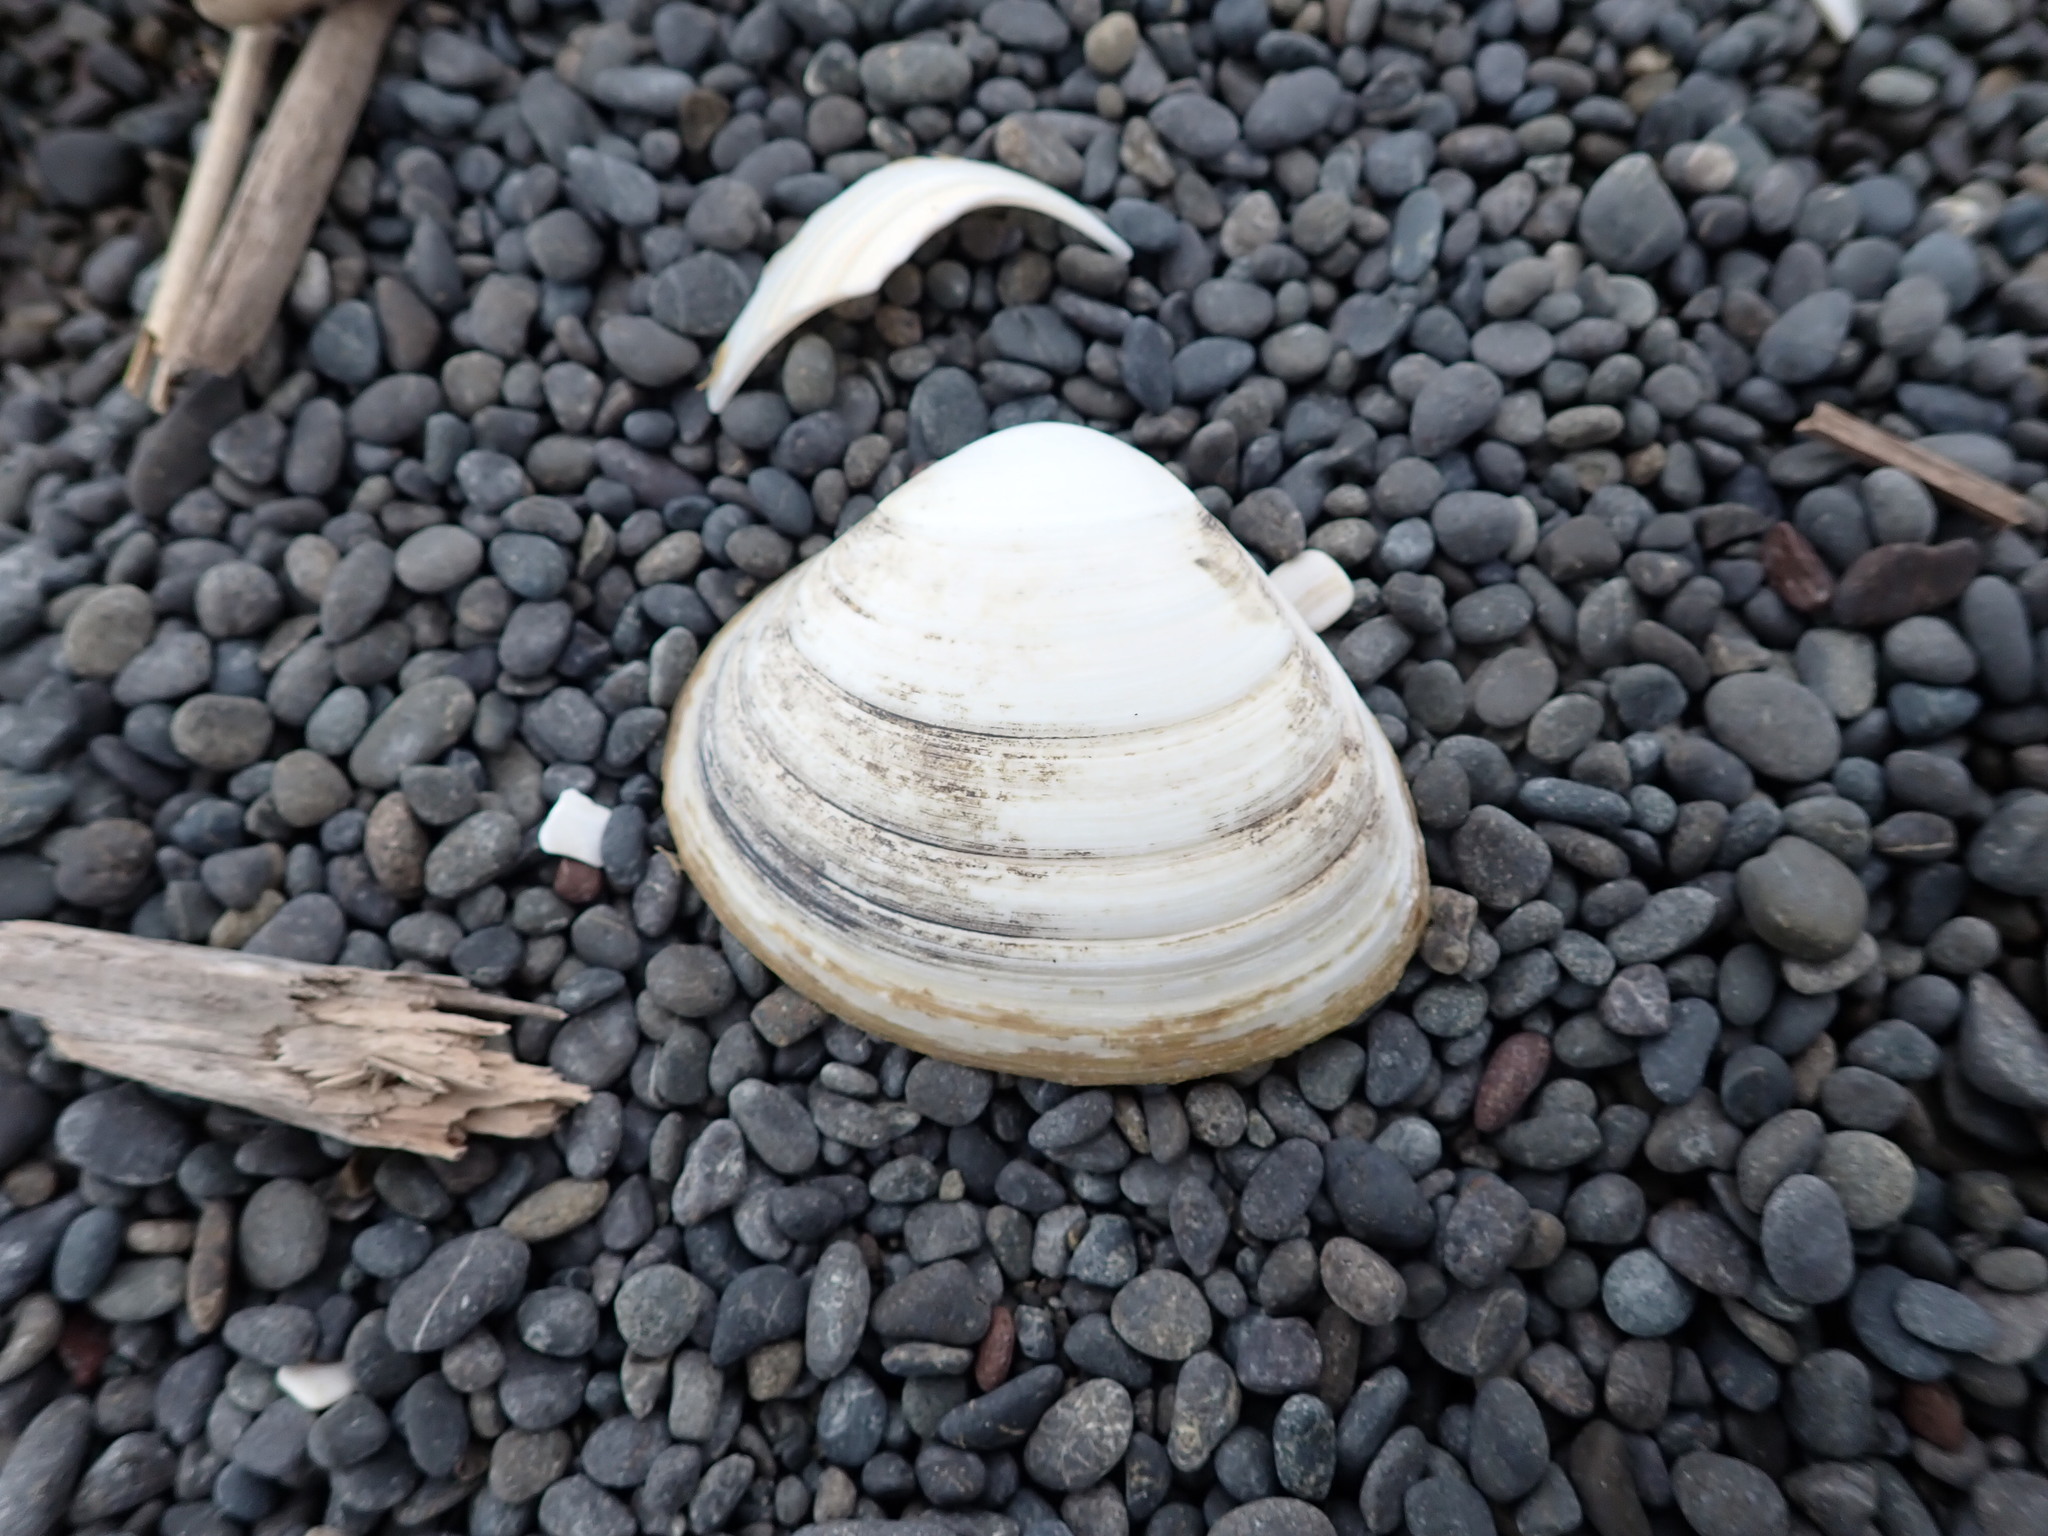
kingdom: Animalia
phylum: Mollusca
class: Bivalvia
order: Venerida
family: Mactridae
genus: Spisula
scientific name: Spisula murchisoni
